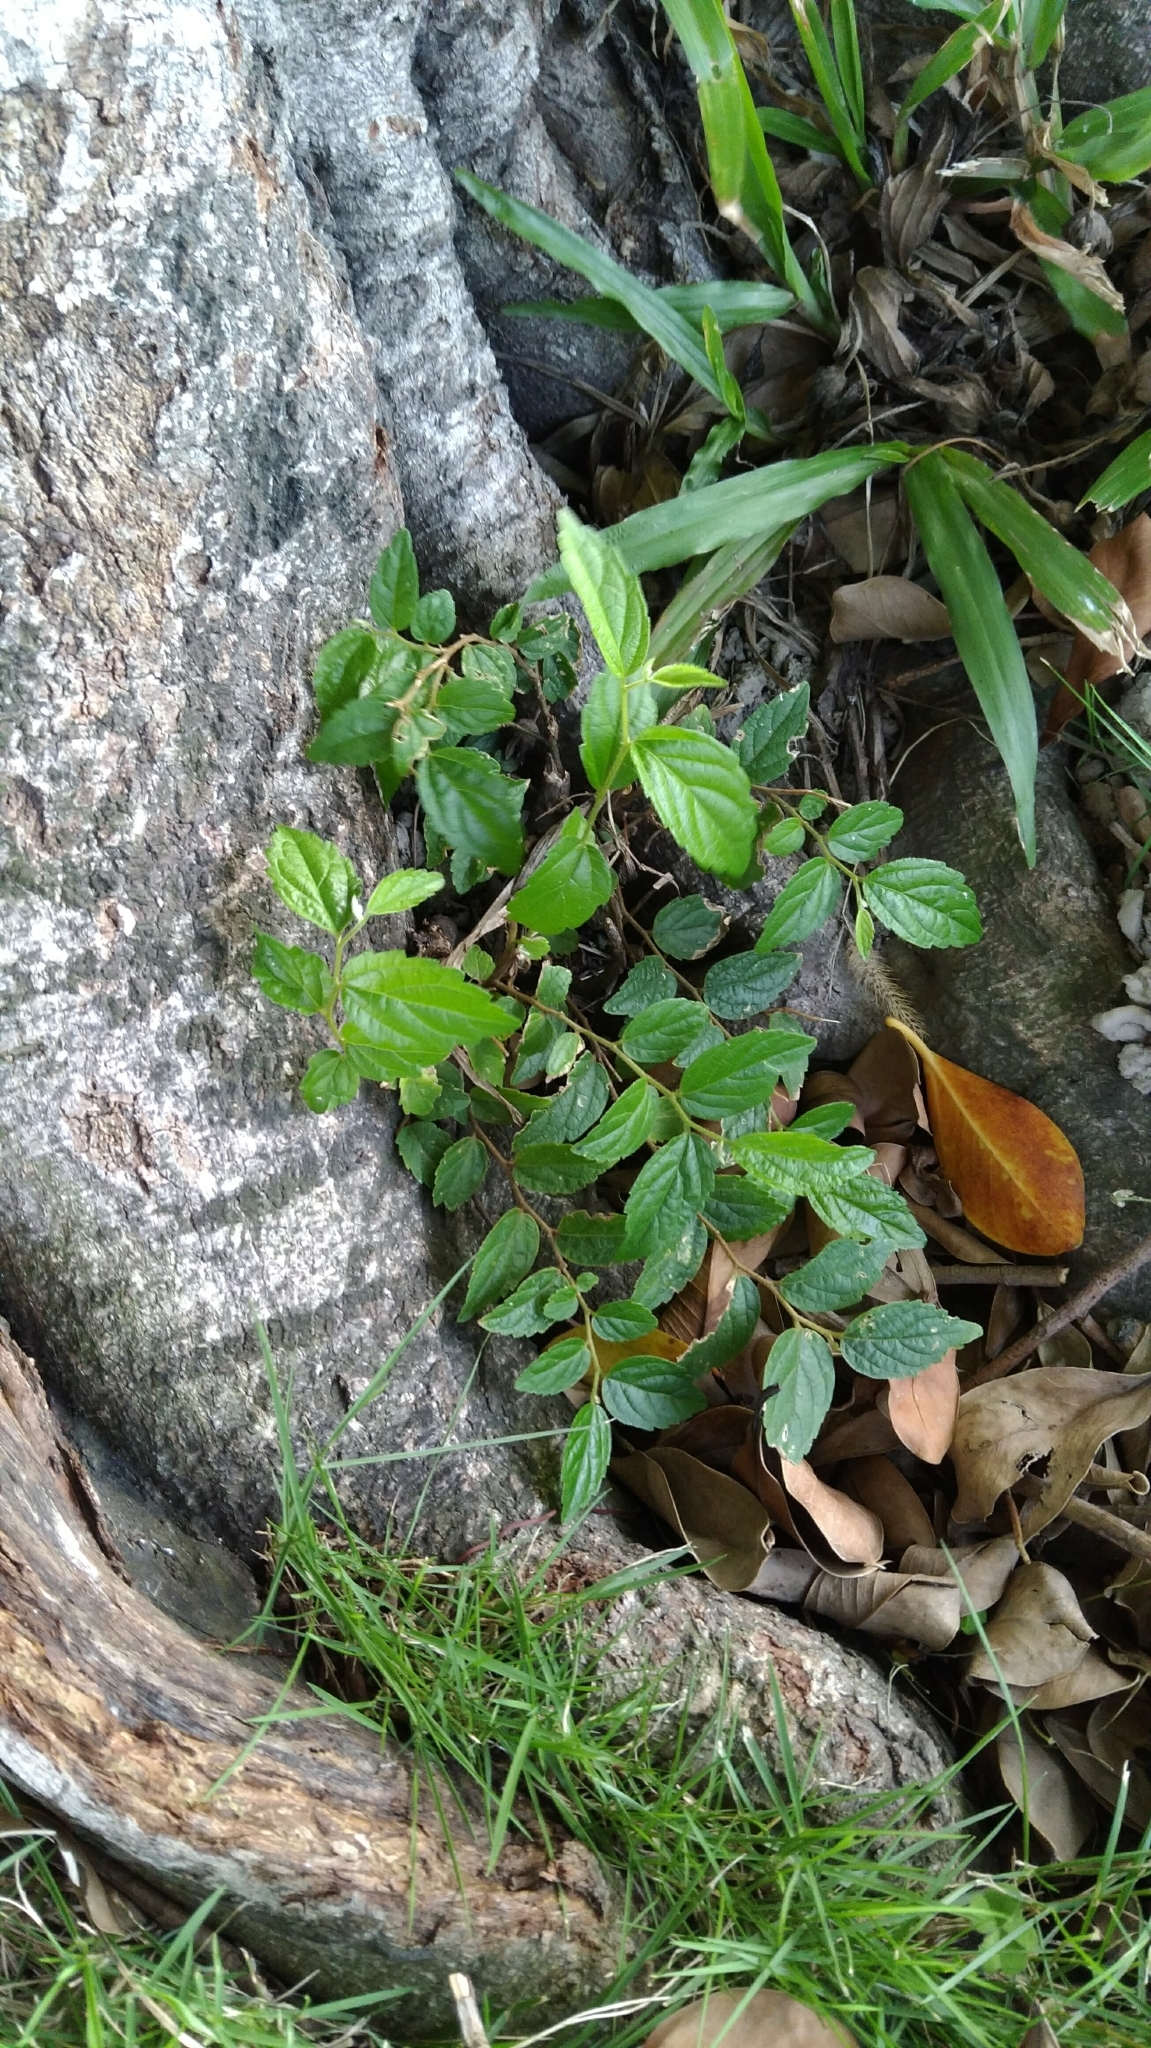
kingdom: Plantae
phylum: Tracheophyta
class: Magnoliopsida
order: Rosales
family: Cannabaceae
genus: Celtis
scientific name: Celtis sinensis
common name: Chinese hackberry
